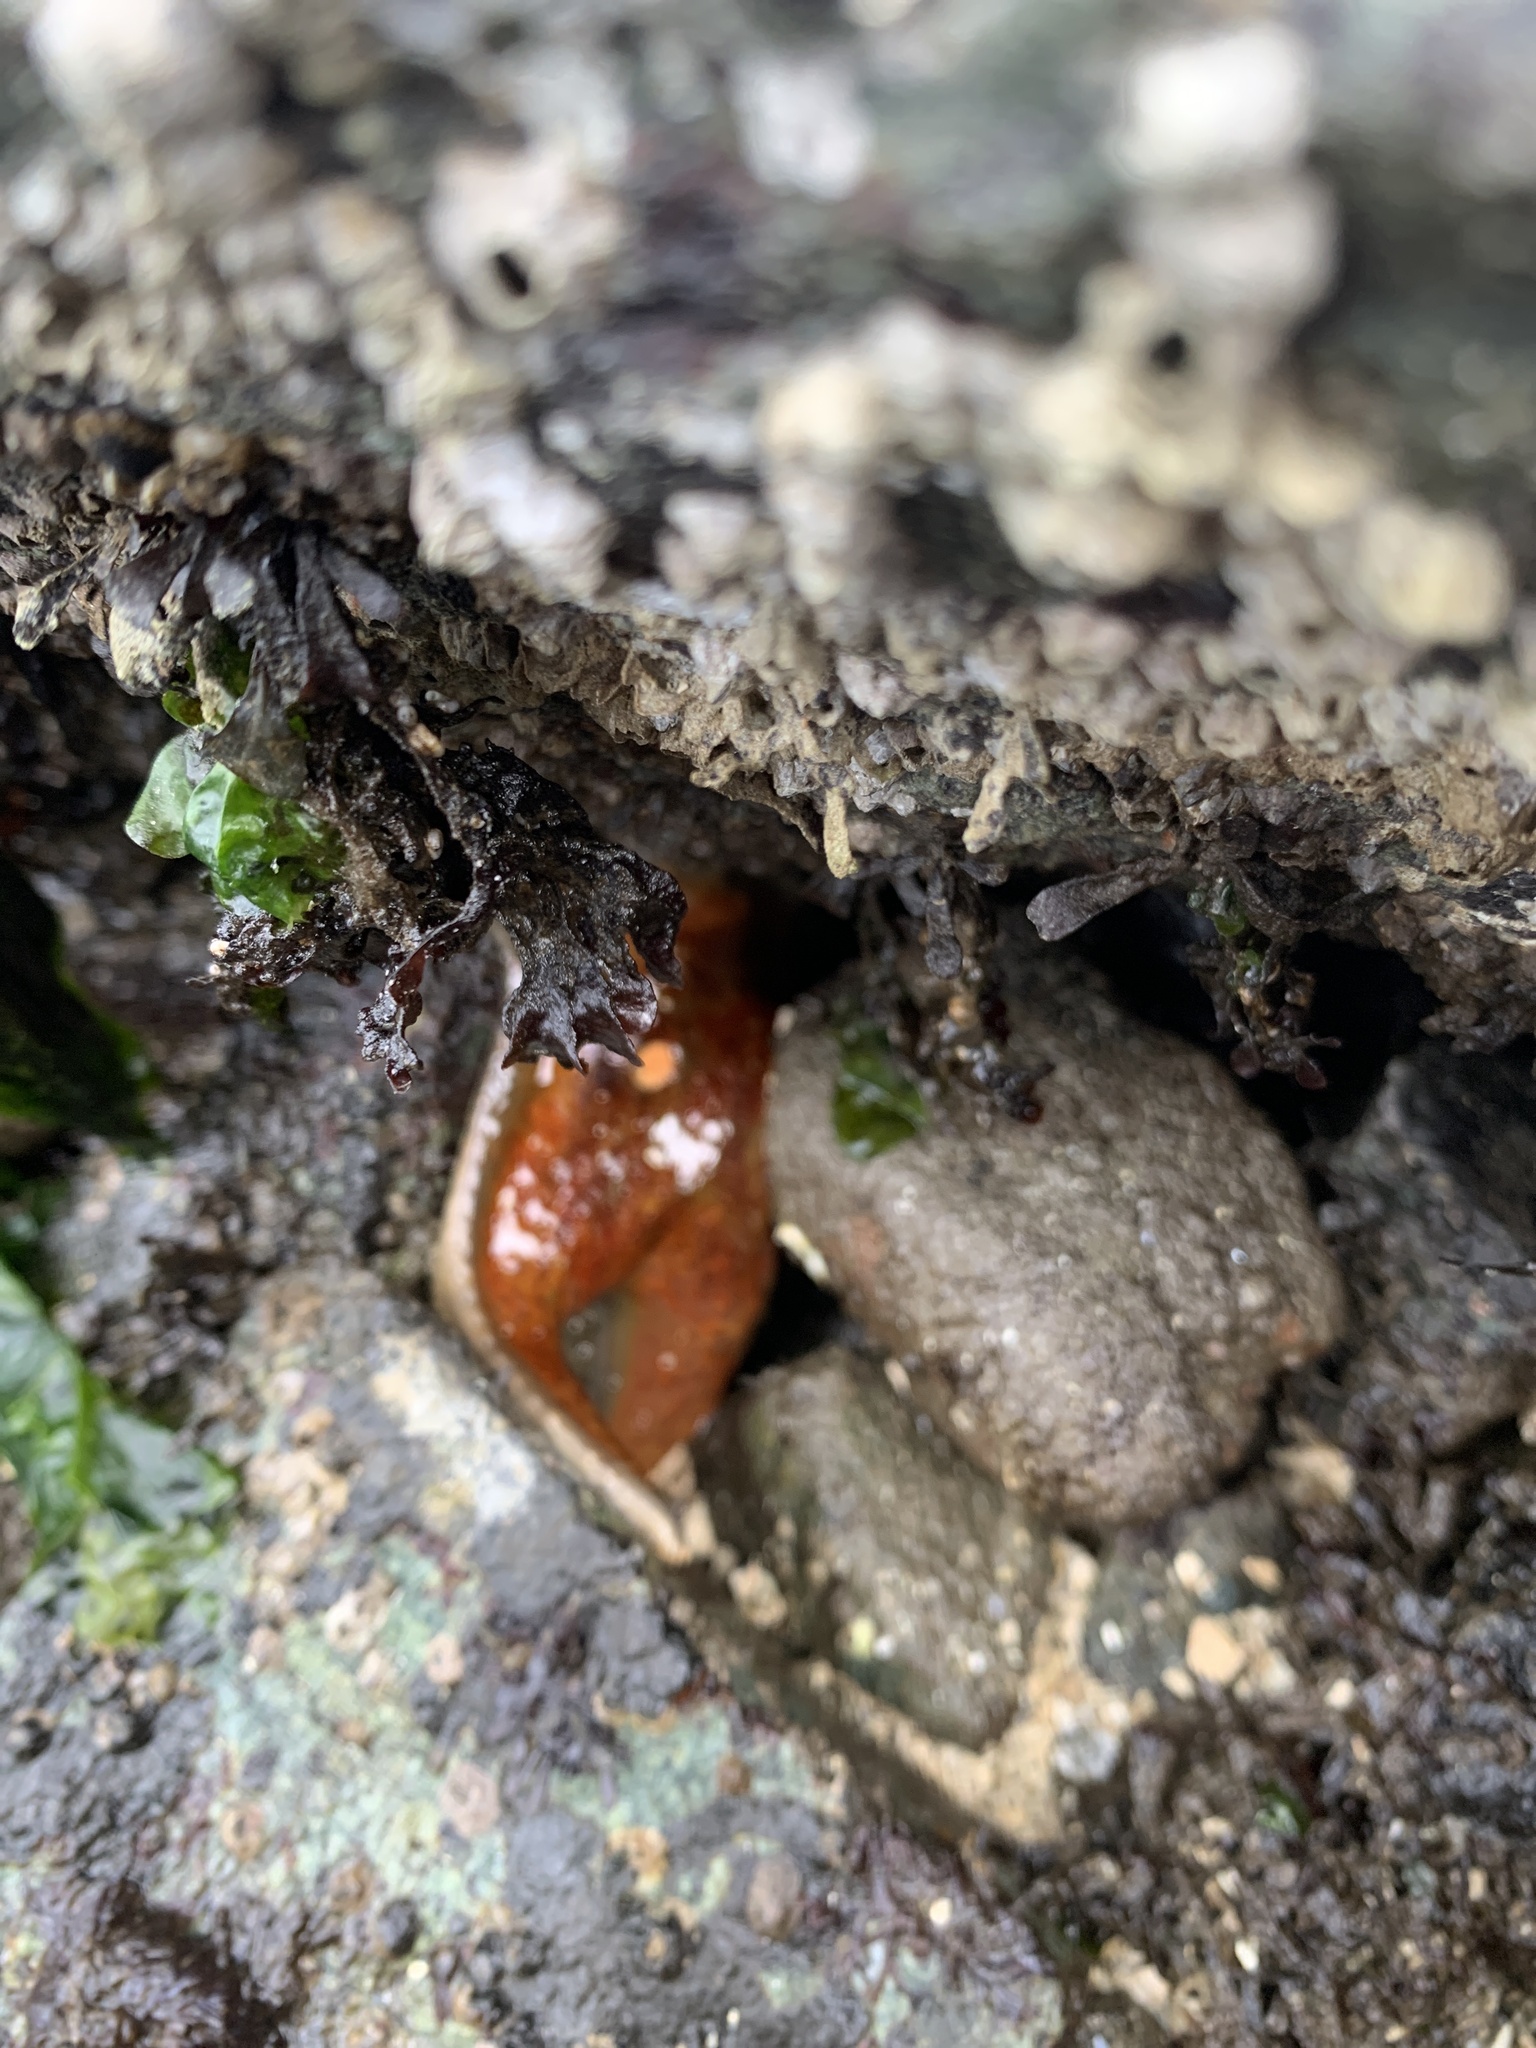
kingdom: Animalia
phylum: Echinodermata
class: Asteroidea
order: Valvatida
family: Asteropseidae
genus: Dermasterias
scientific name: Dermasterias imbricata
